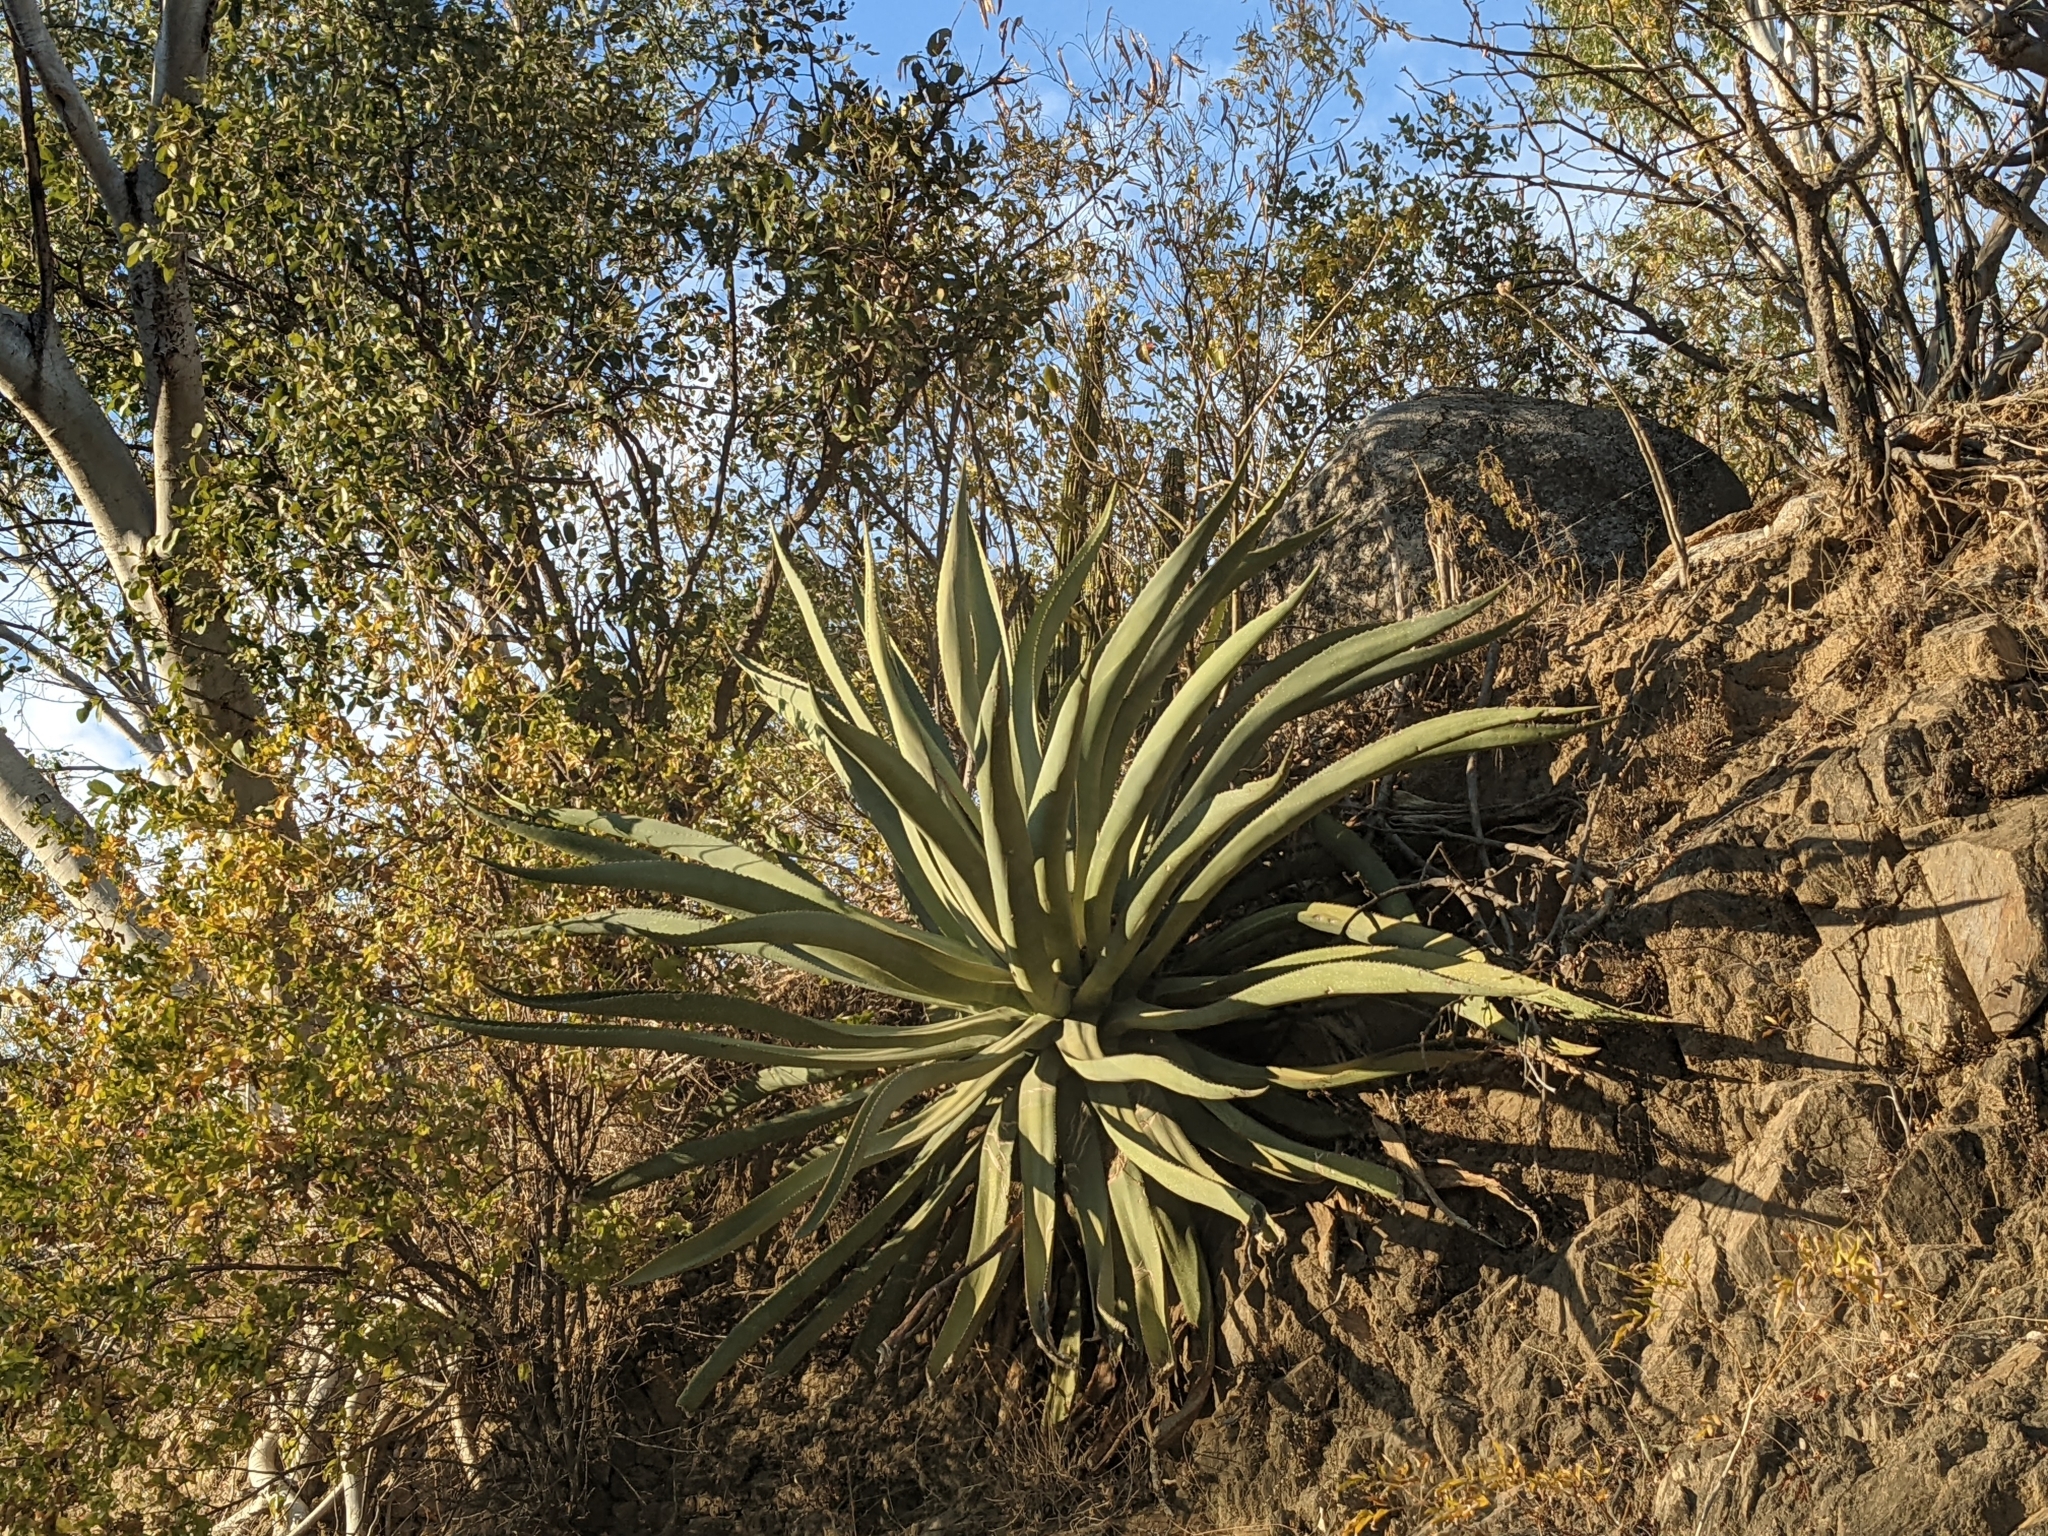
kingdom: Plantae
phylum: Tracheophyta
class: Liliopsida
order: Asparagales
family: Asparagaceae
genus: Agave
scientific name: Agave aurea
